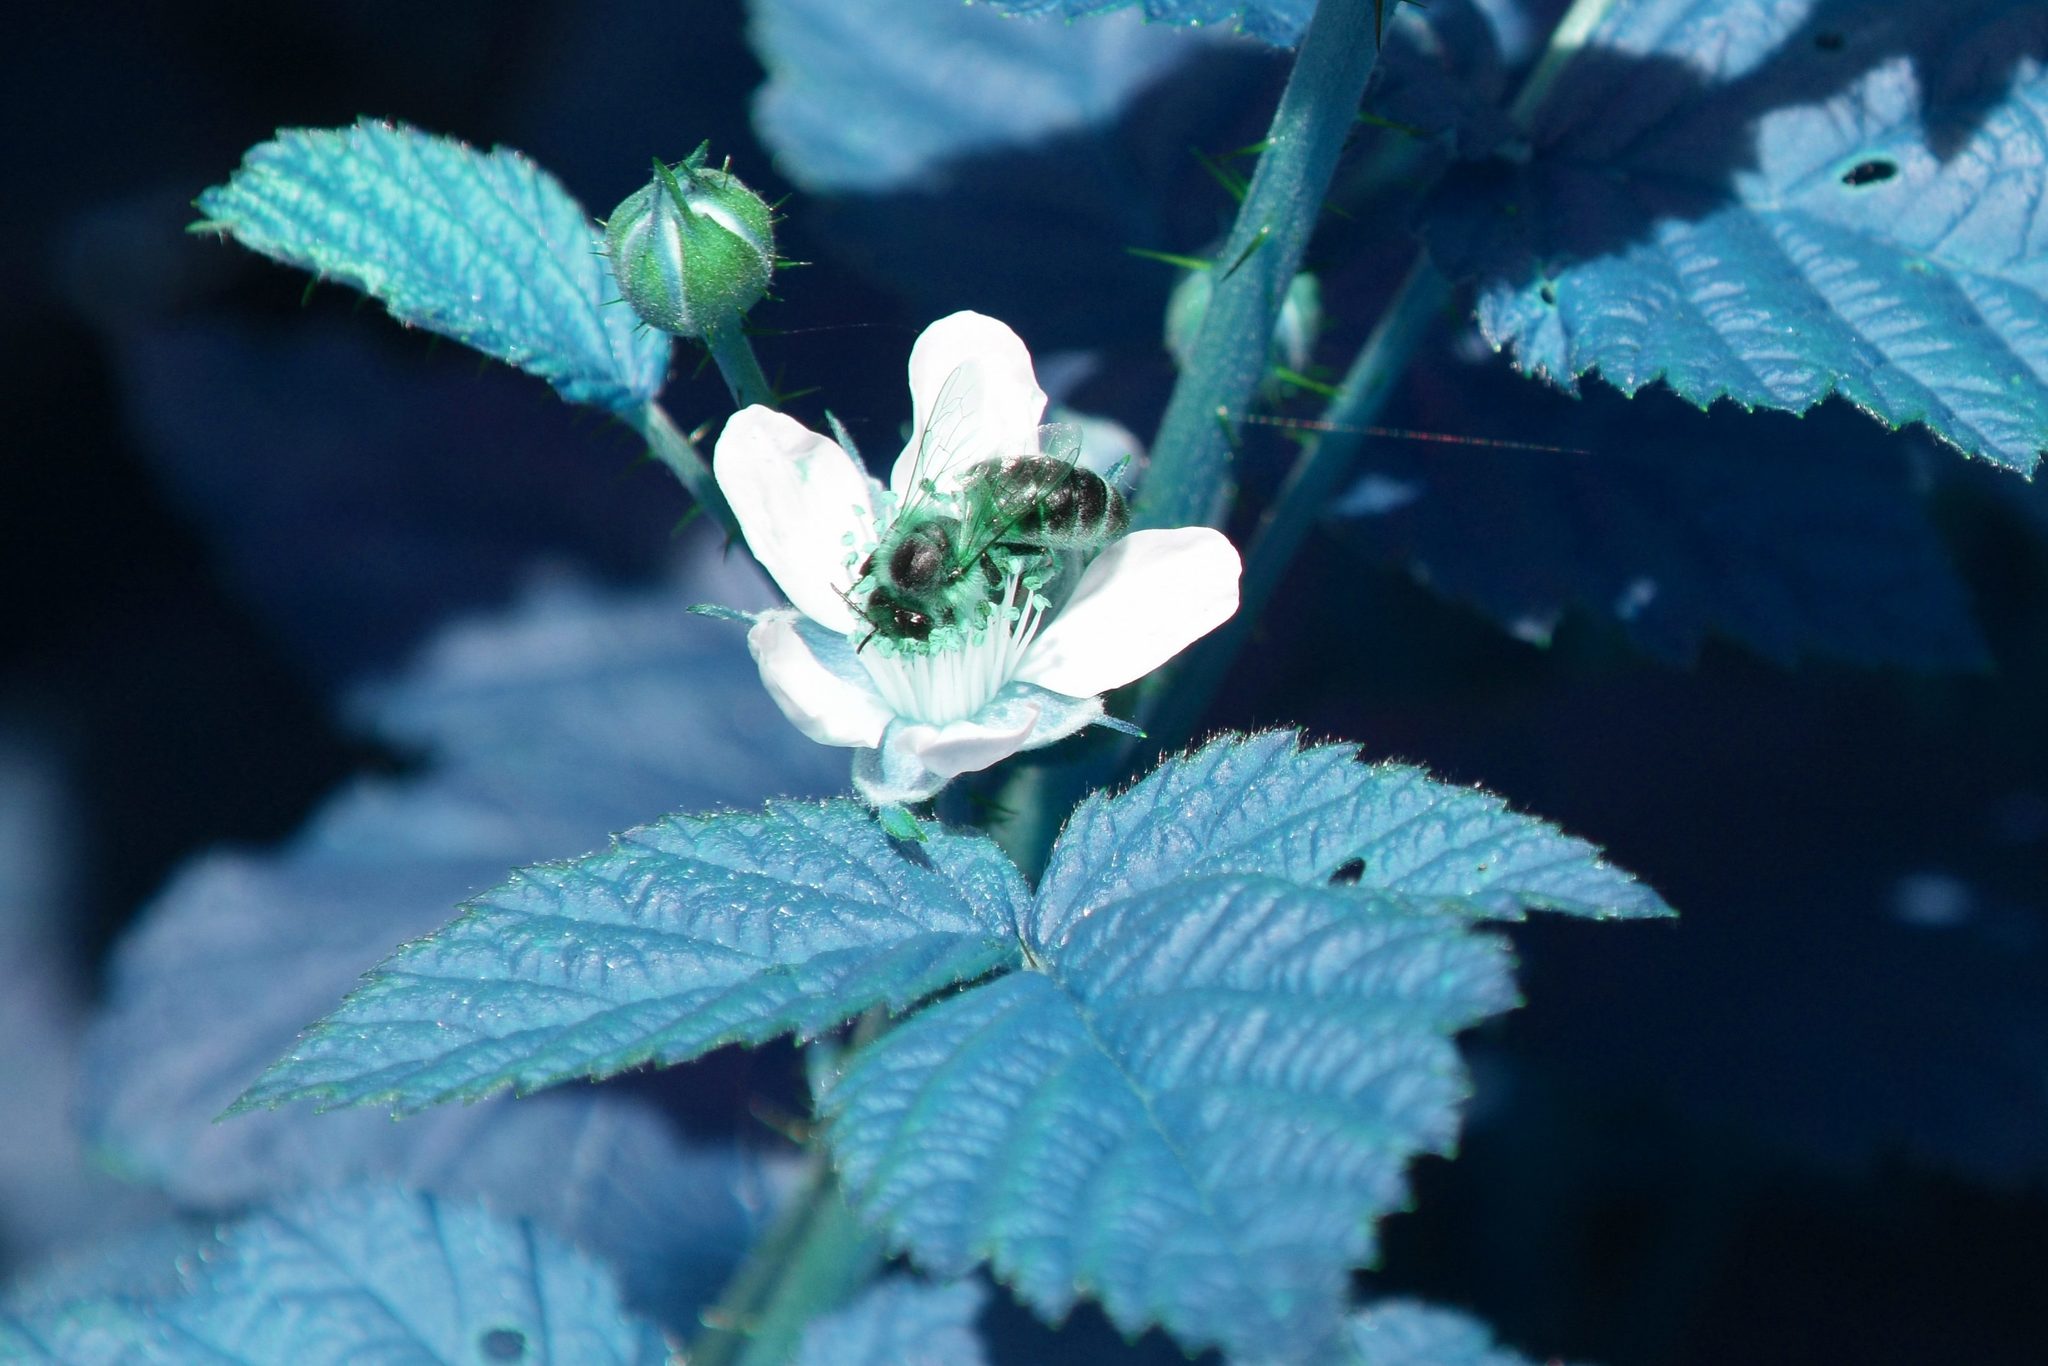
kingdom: Animalia
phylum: Arthropoda
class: Insecta
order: Hymenoptera
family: Apidae
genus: Apis
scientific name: Apis mellifera
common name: Honey bee
